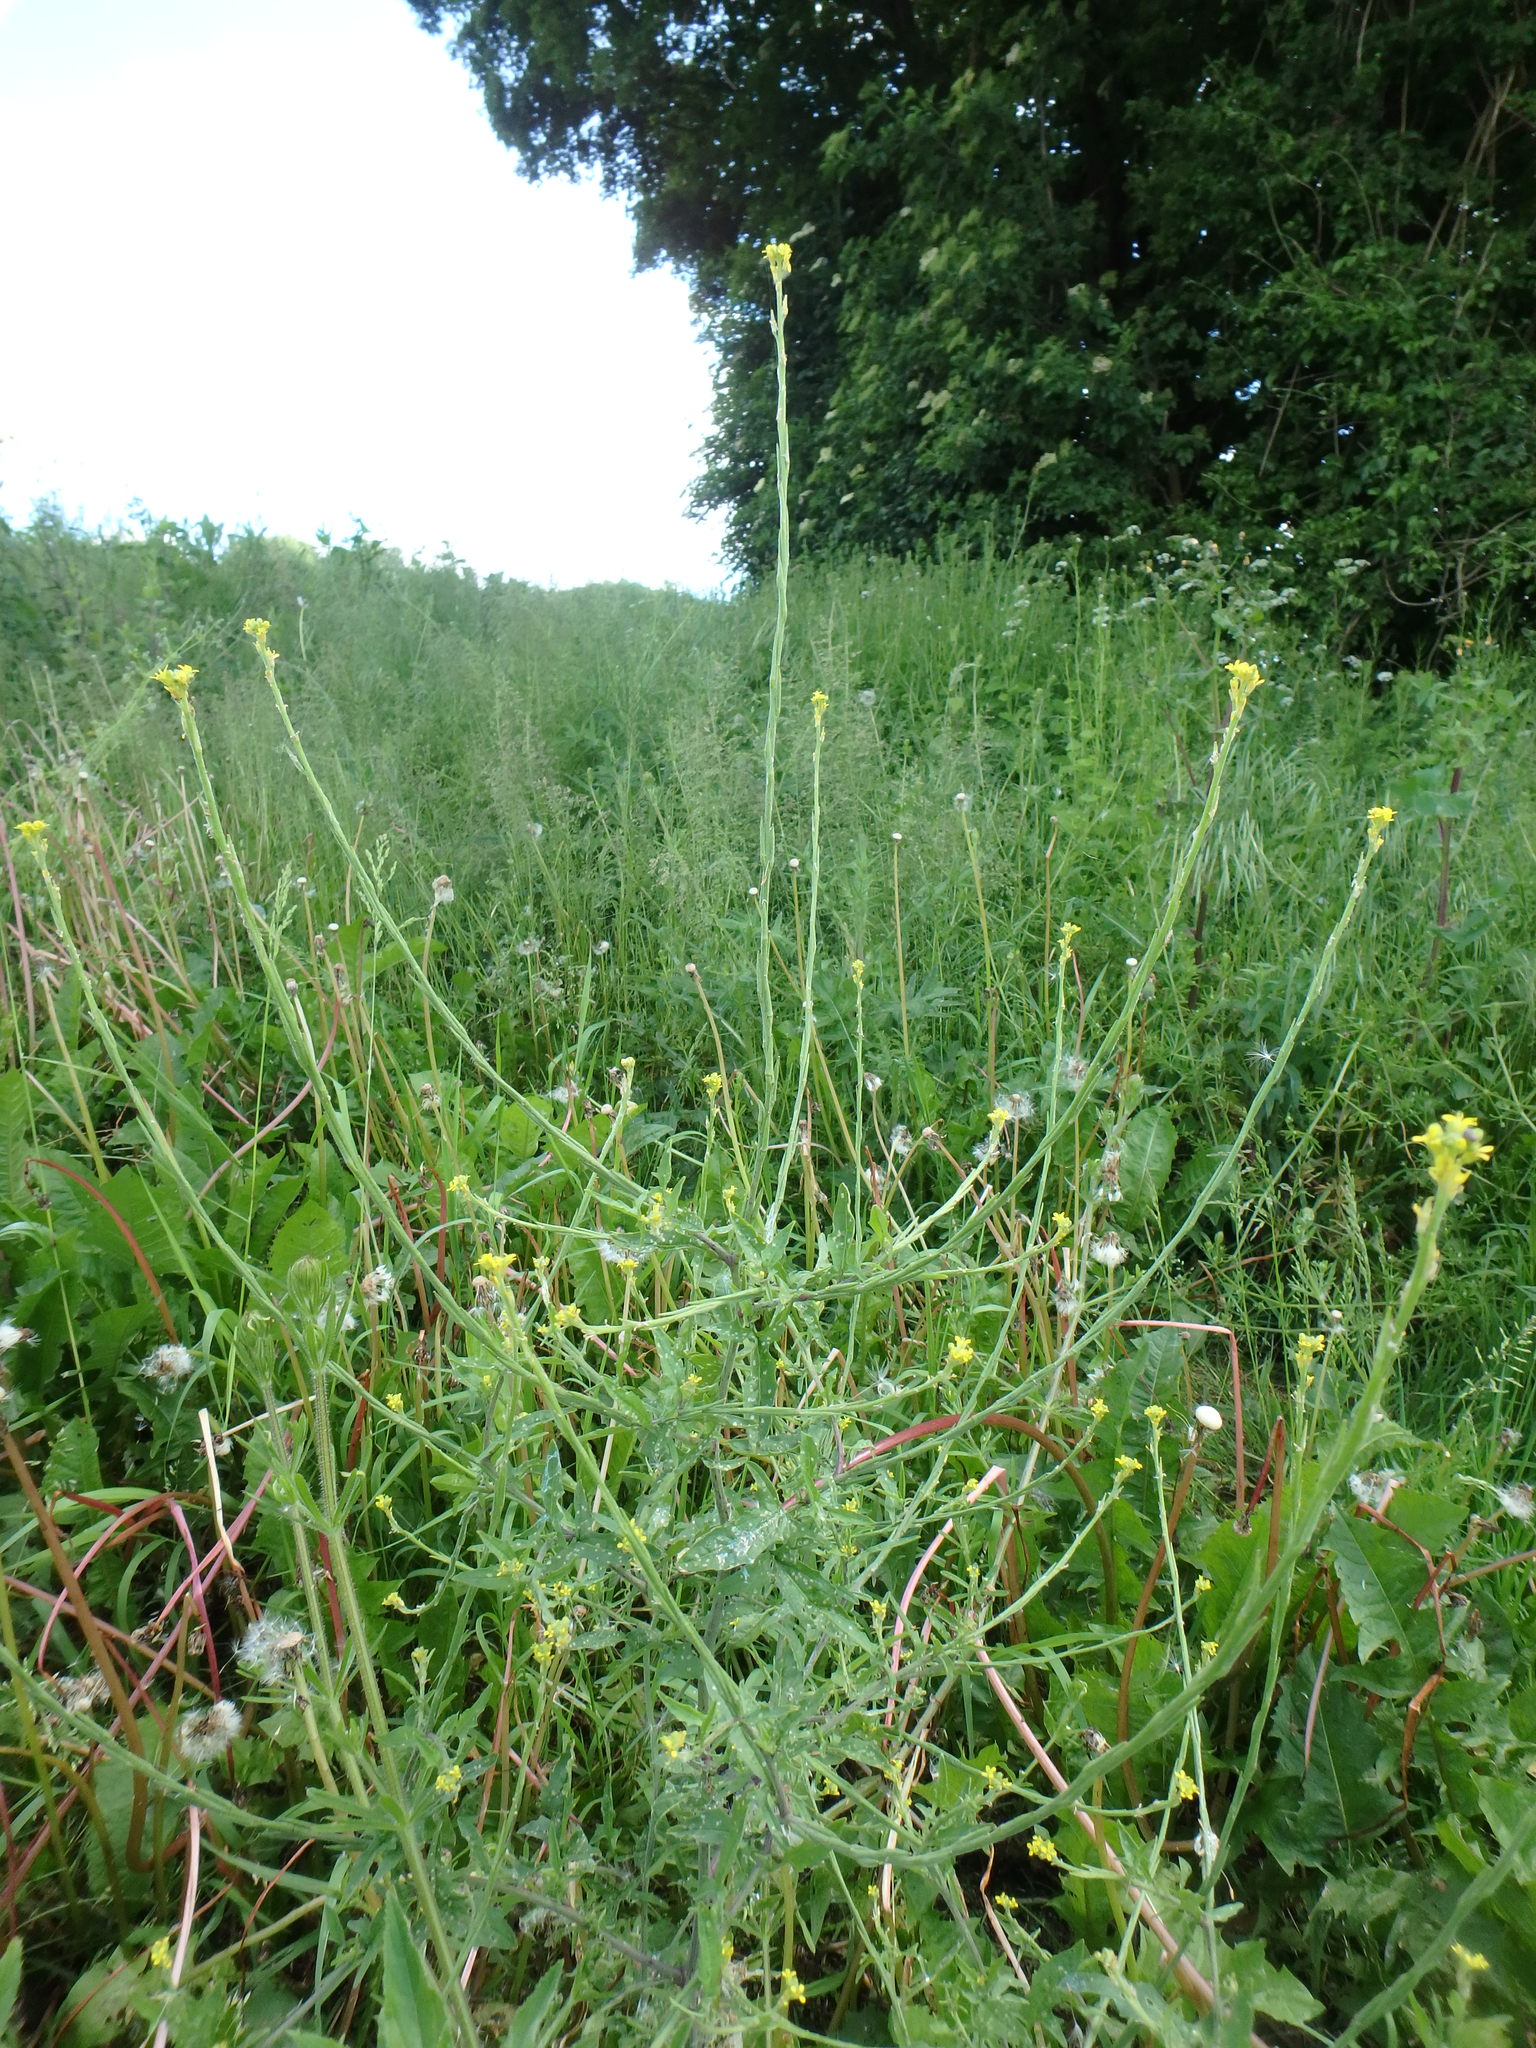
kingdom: Plantae
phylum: Tracheophyta
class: Magnoliopsida
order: Brassicales
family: Brassicaceae
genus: Sisymbrium
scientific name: Sisymbrium officinale
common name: Hedge mustard
